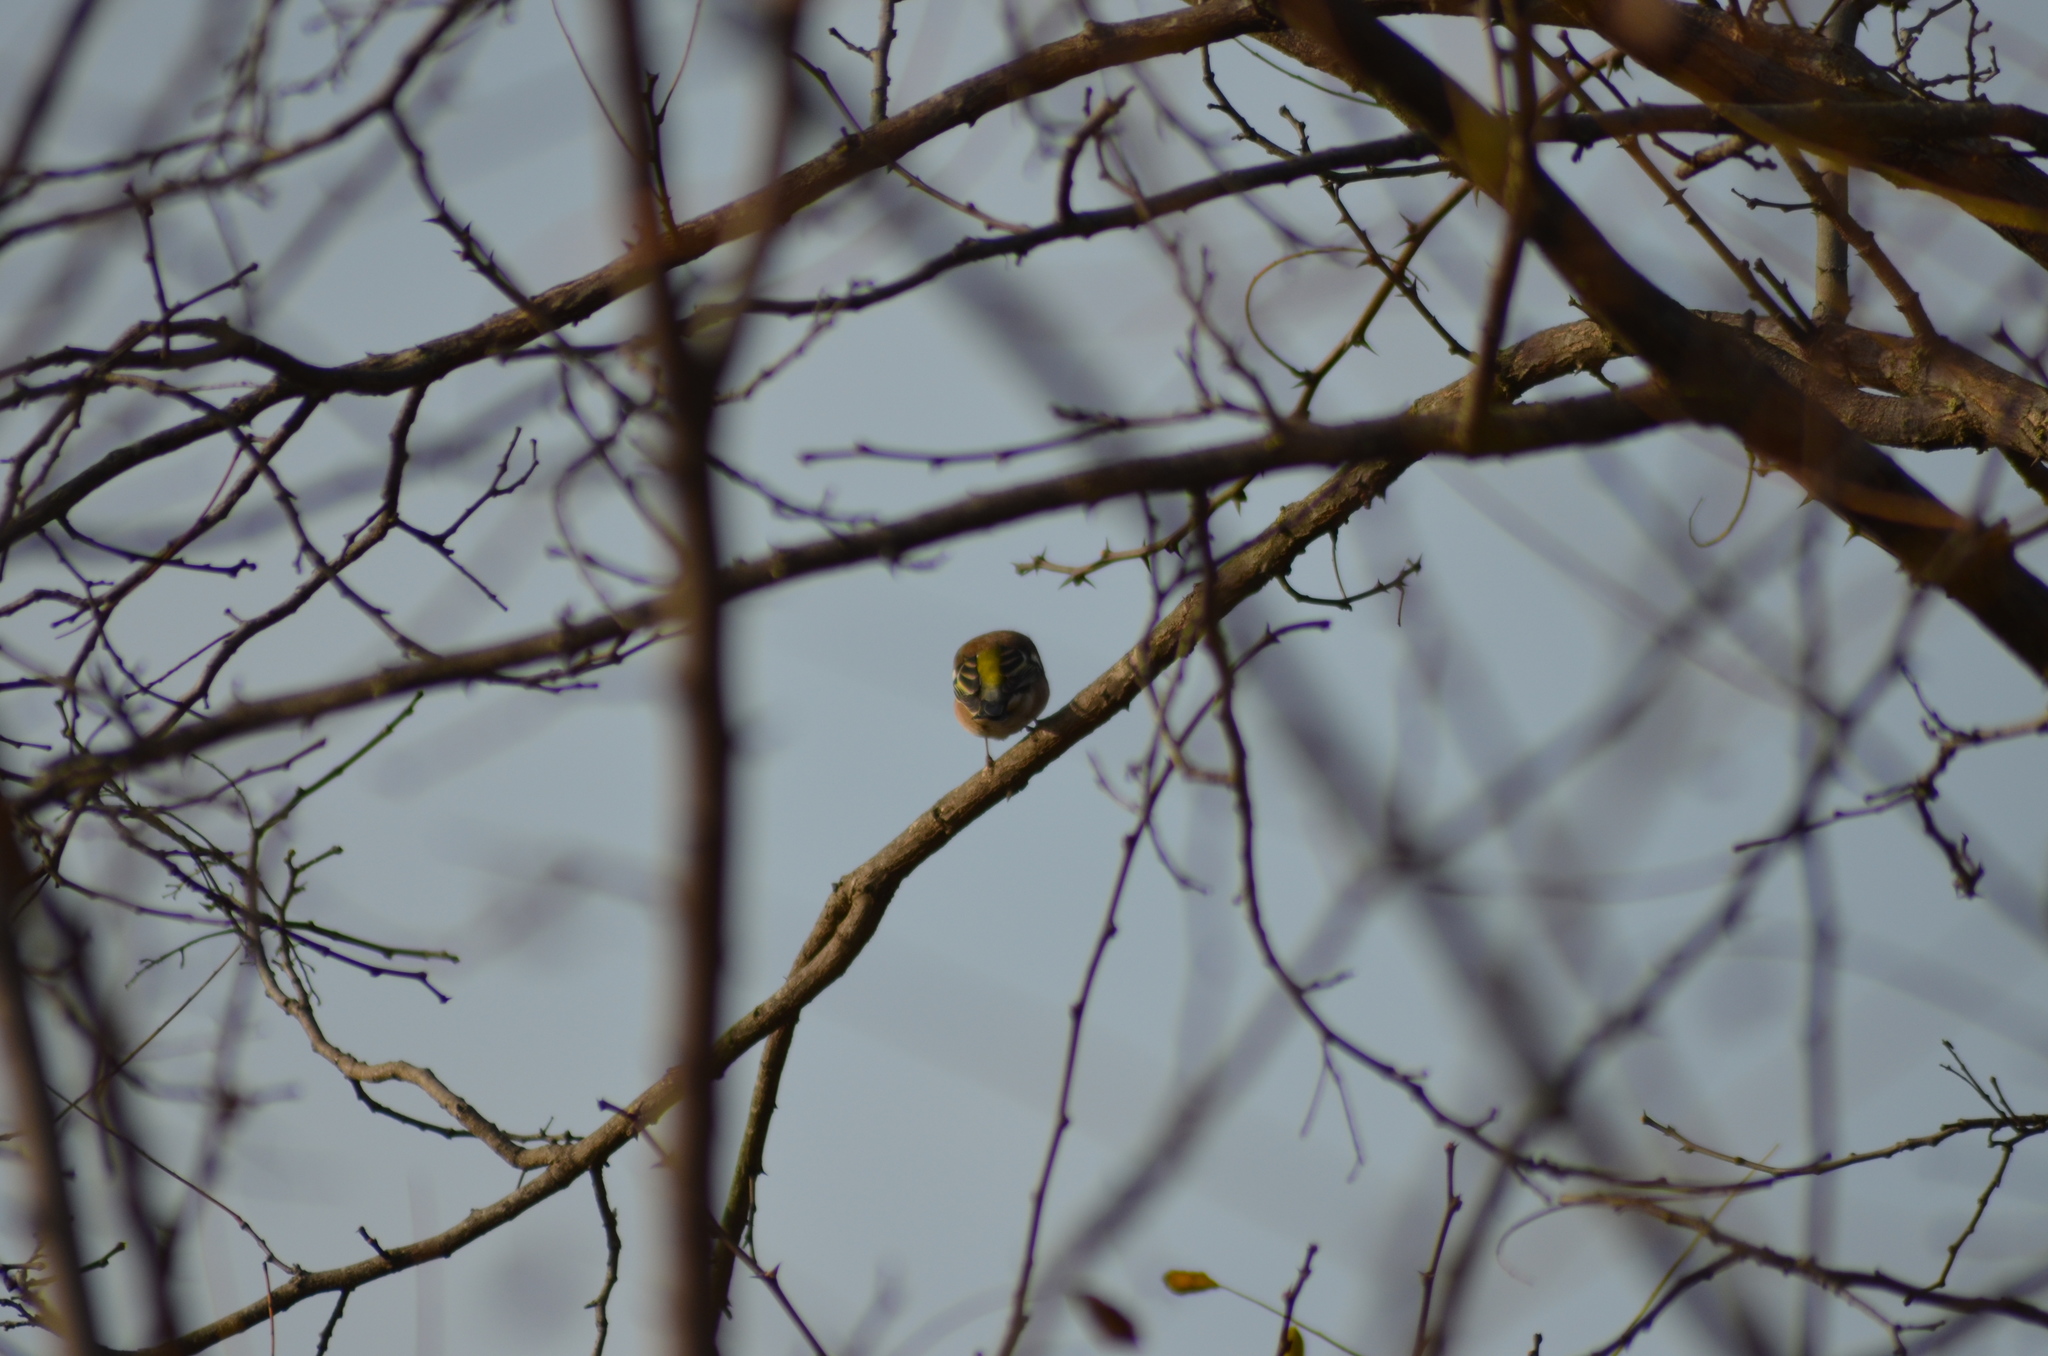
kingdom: Animalia
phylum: Chordata
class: Aves
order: Passeriformes
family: Fringillidae
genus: Fringilla
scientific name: Fringilla coelebs
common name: Common chaffinch
